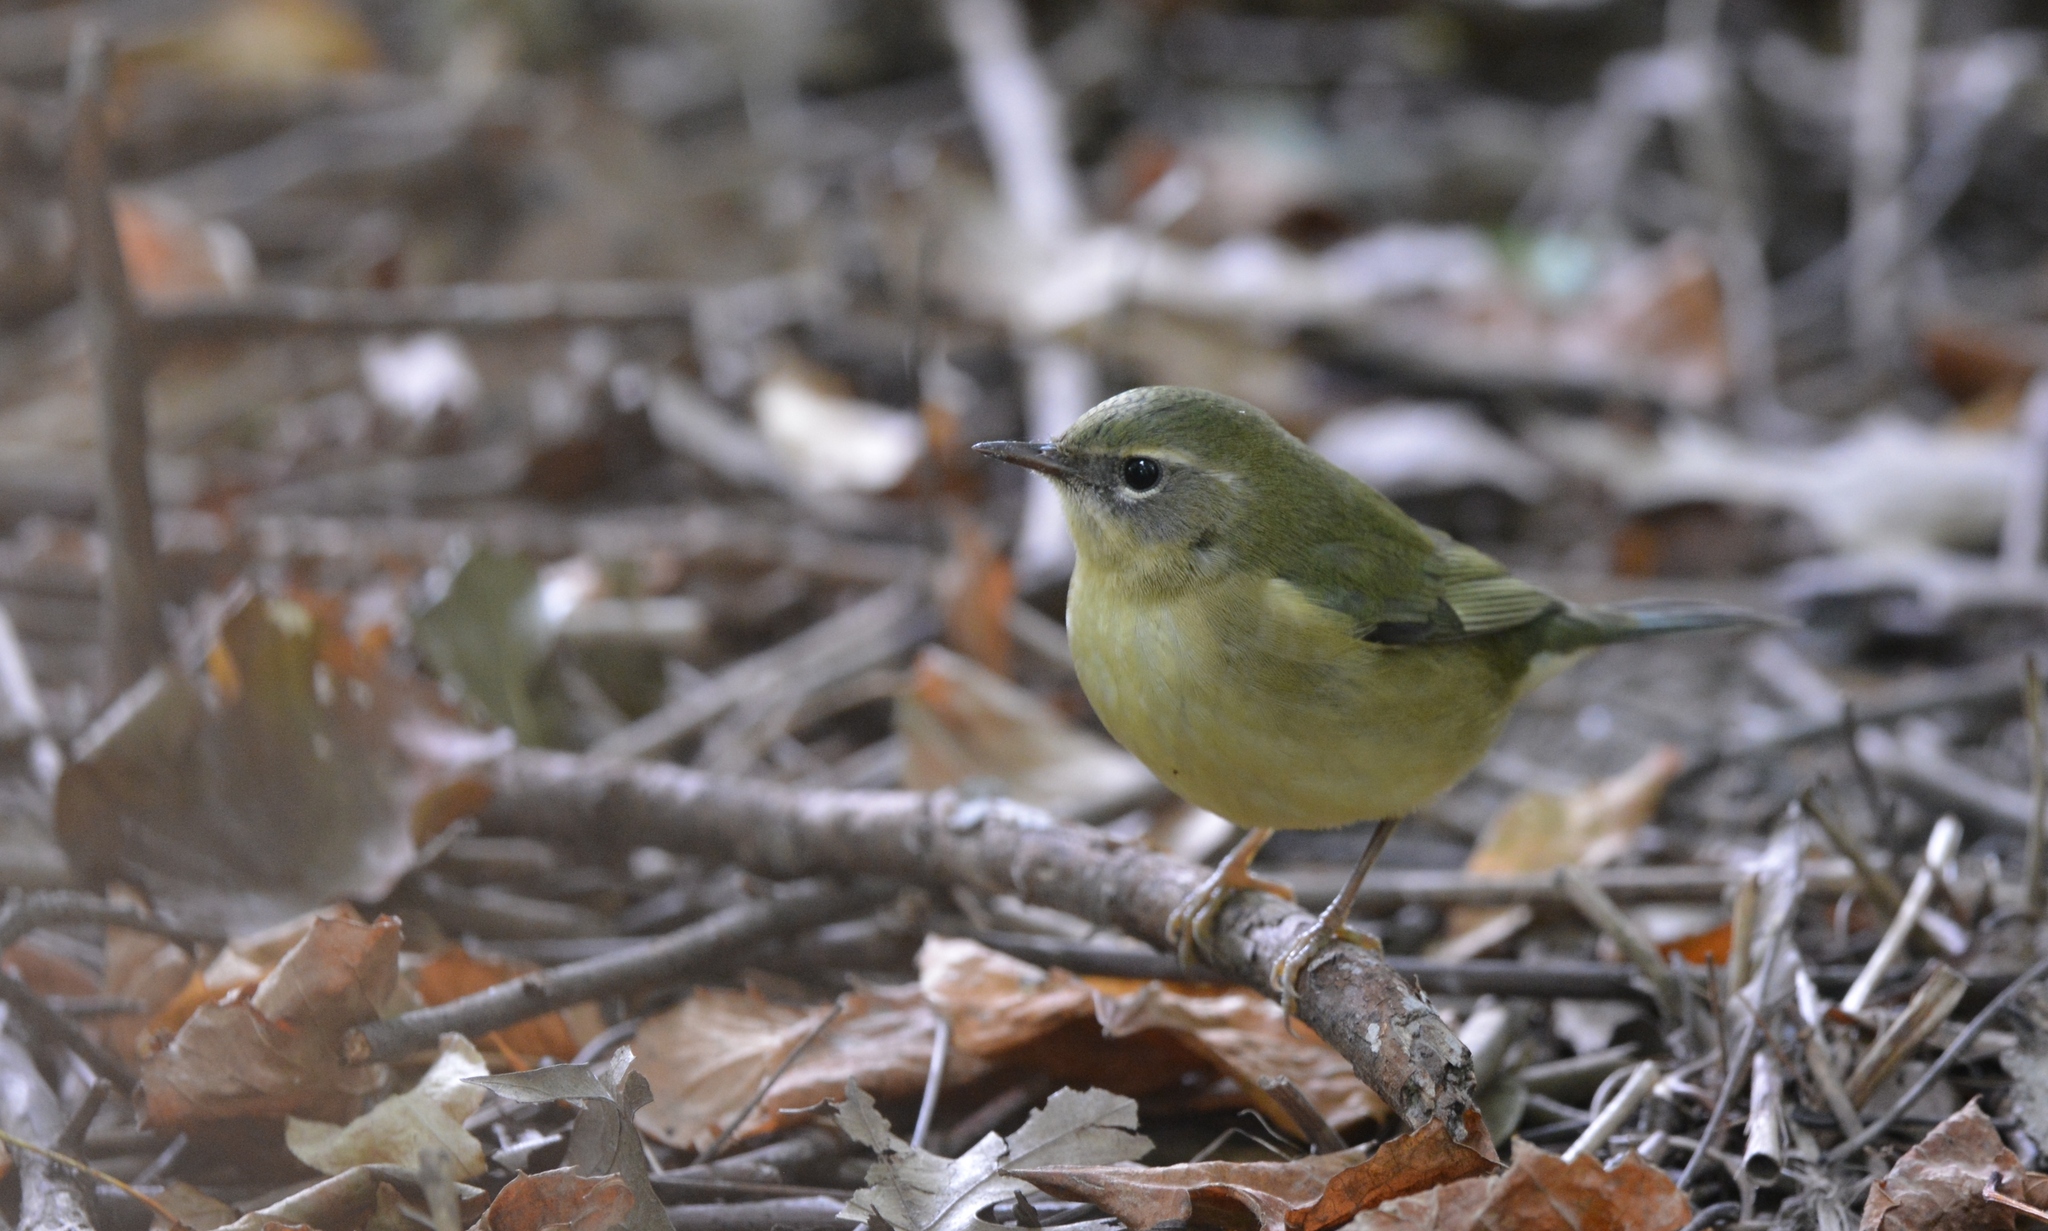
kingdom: Animalia
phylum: Chordata
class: Aves
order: Passeriformes
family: Parulidae
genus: Setophaga
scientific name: Setophaga caerulescens
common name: Black-throated blue warbler
